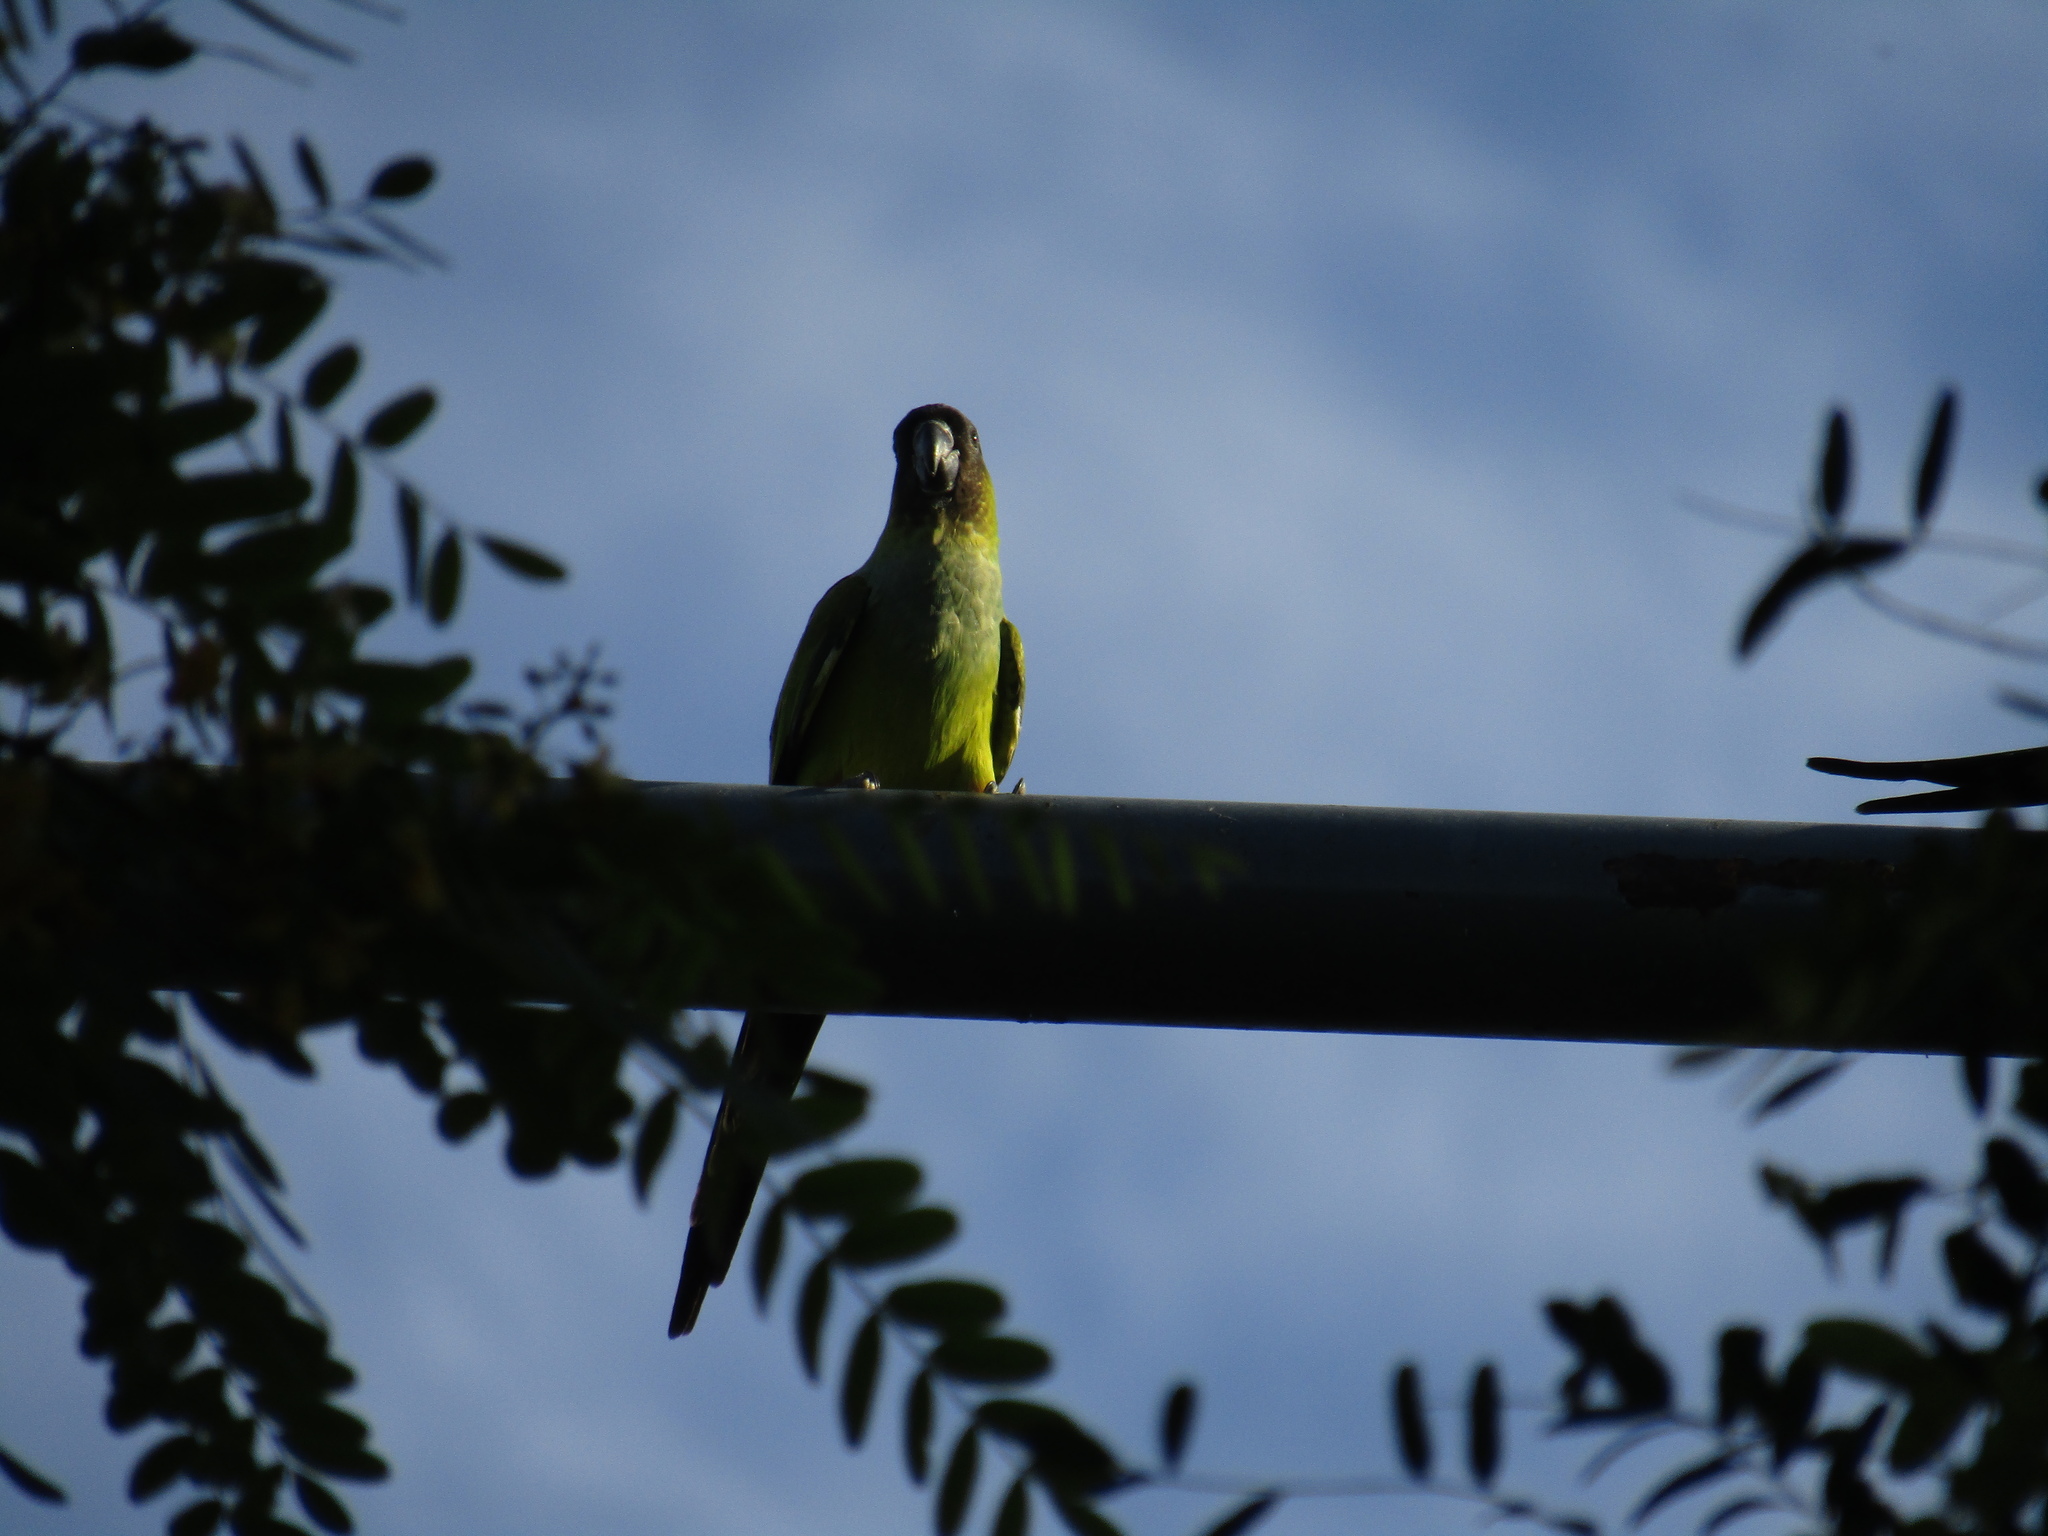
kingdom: Animalia
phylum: Chordata
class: Aves
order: Psittaciformes
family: Psittacidae
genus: Nandayus
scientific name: Nandayus nenday
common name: Nanday parakeet
